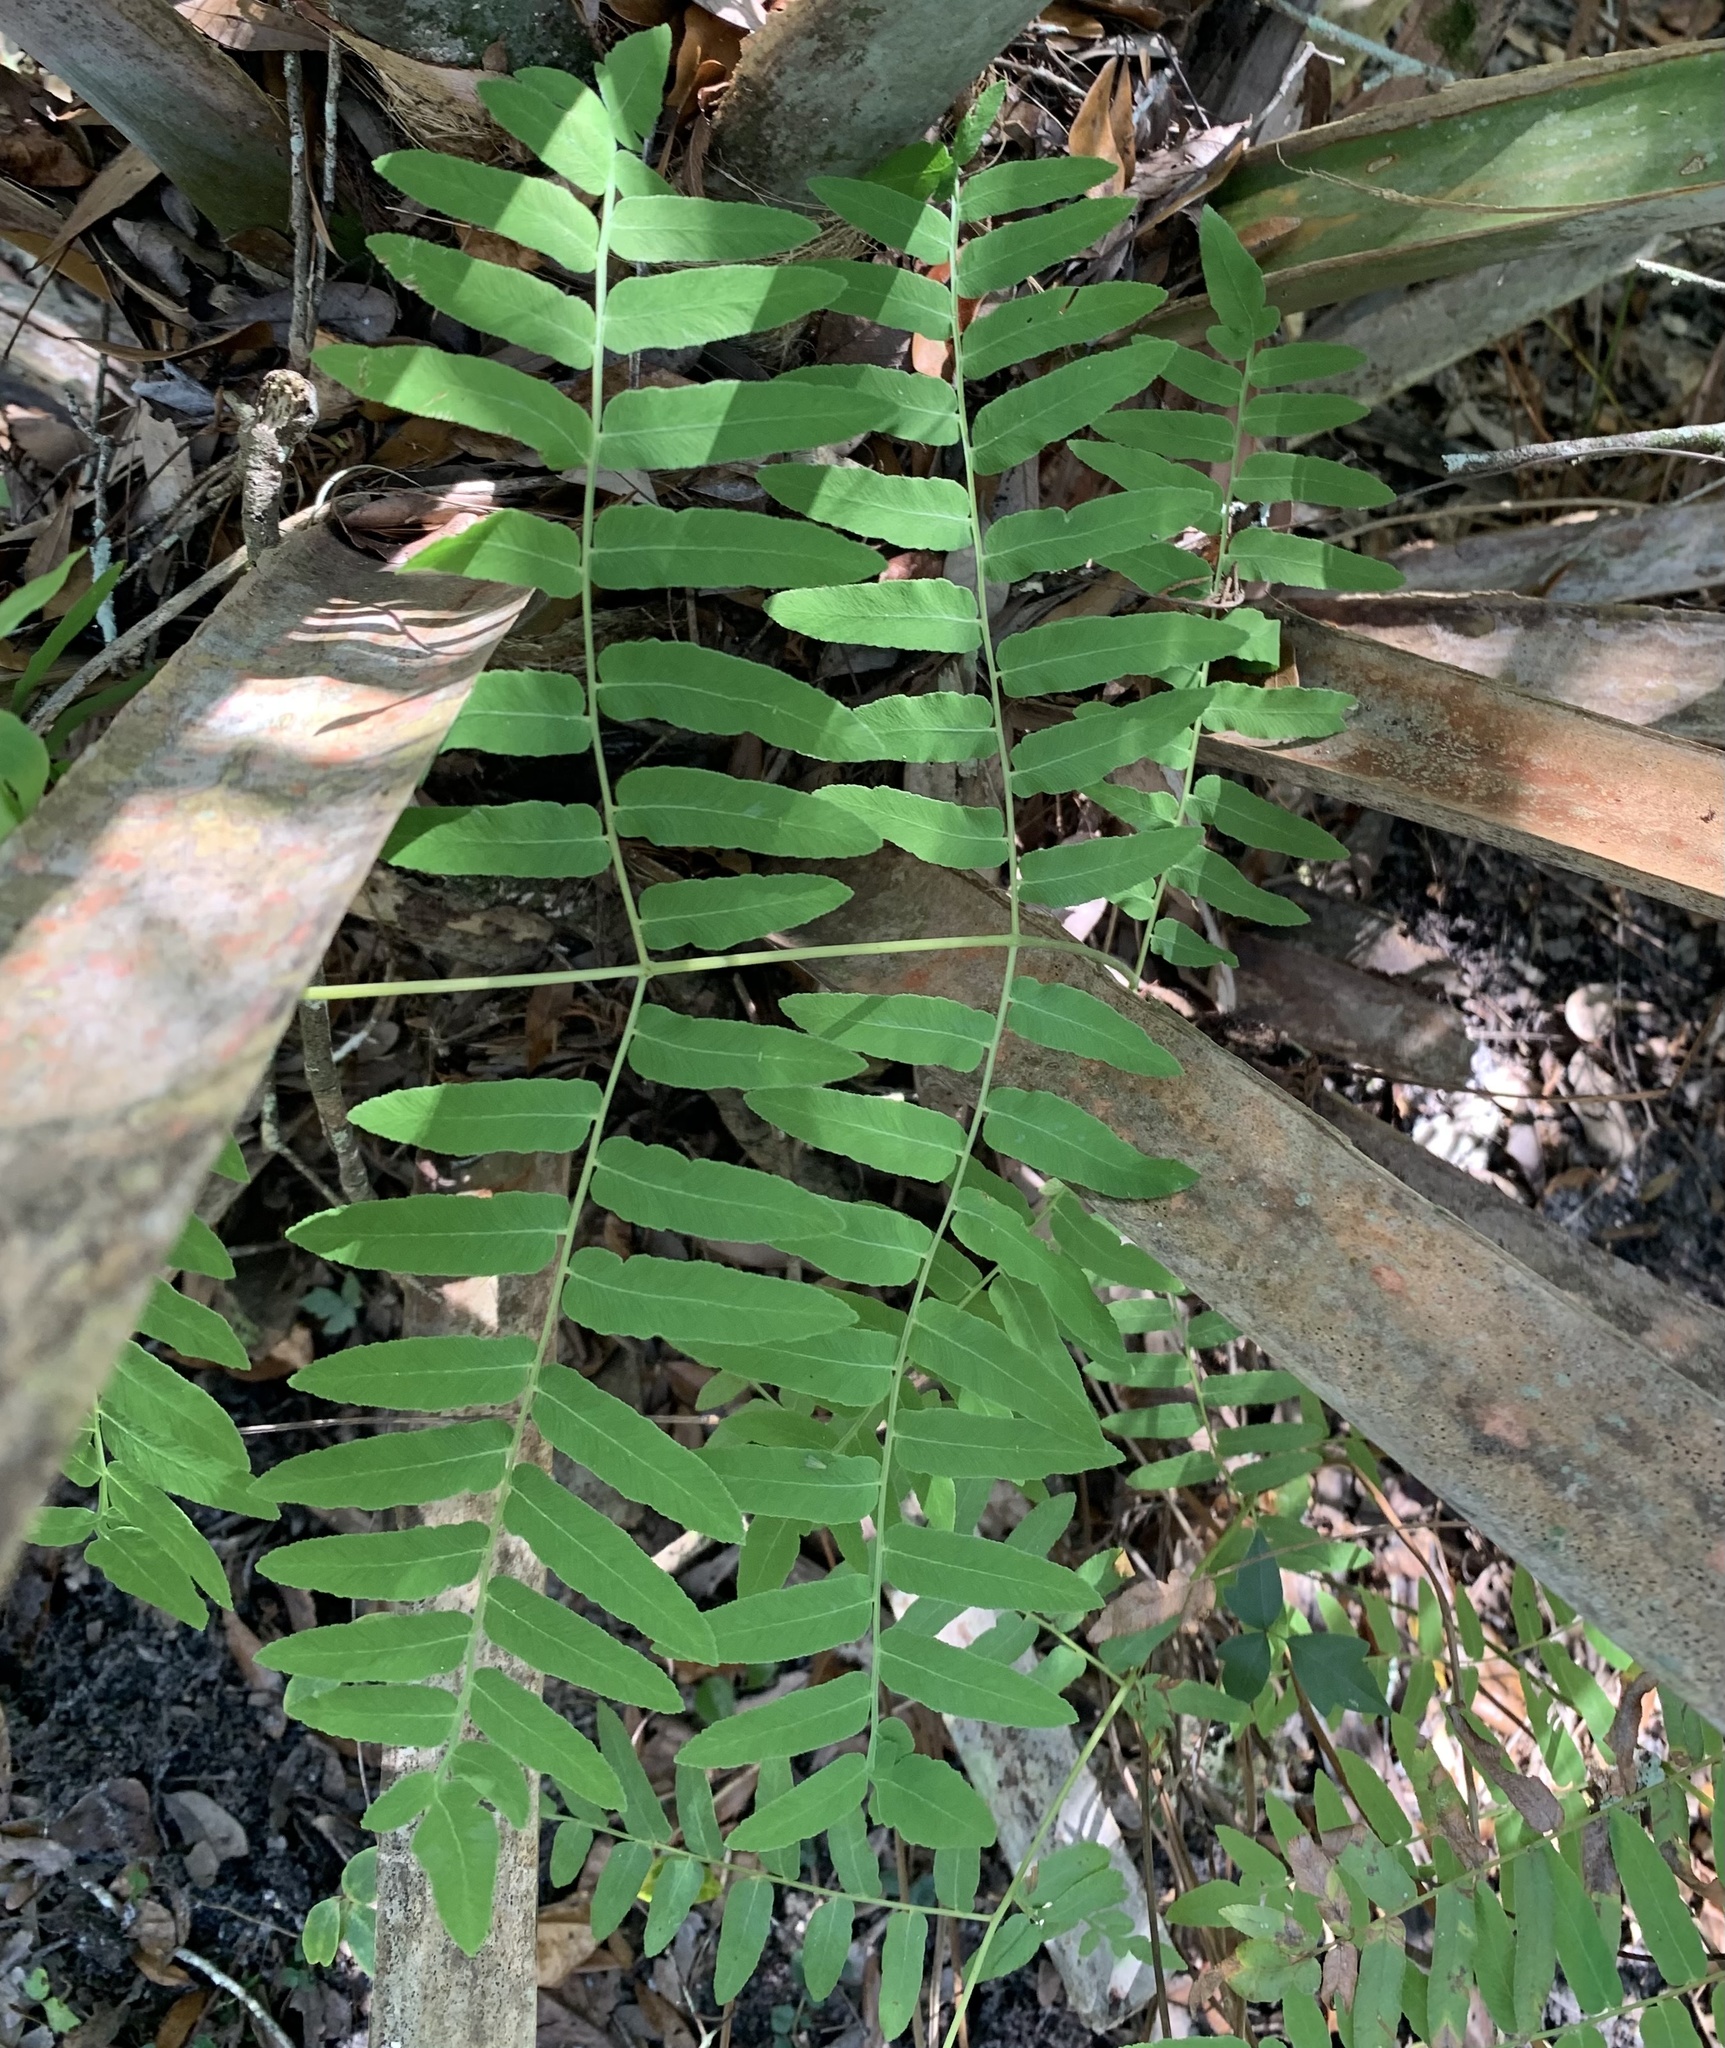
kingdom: Plantae
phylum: Tracheophyta
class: Polypodiopsida
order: Osmundales
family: Osmundaceae
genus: Osmunda
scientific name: Osmunda spectabilis
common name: American royal fern
